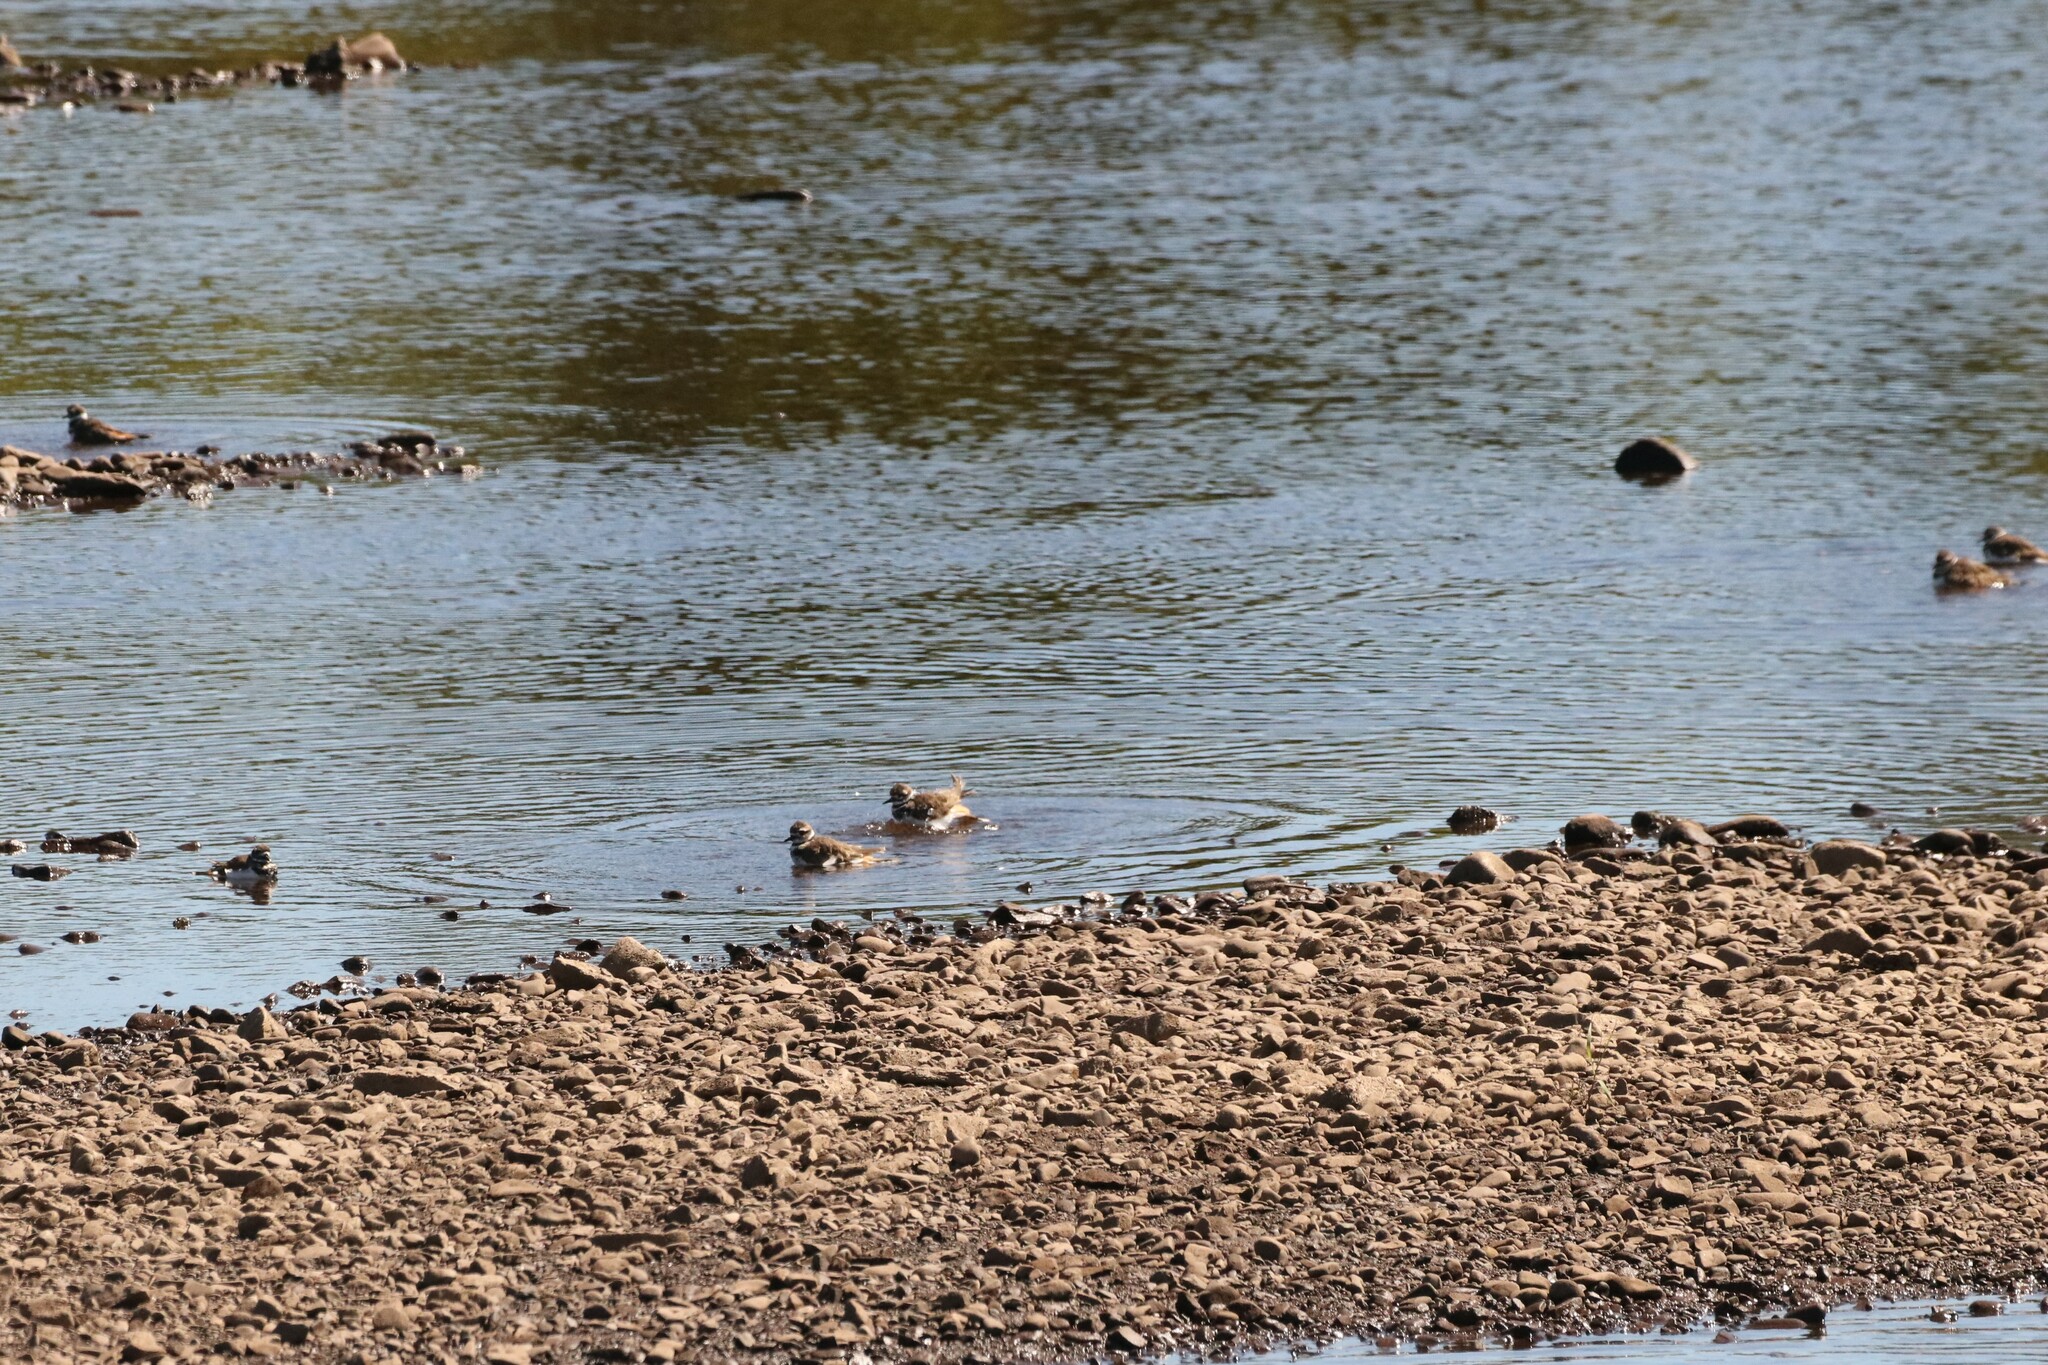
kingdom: Animalia
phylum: Chordata
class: Aves
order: Charadriiformes
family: Charadriidae
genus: Charadrius
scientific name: Charadrius vociferus
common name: Killdeer
